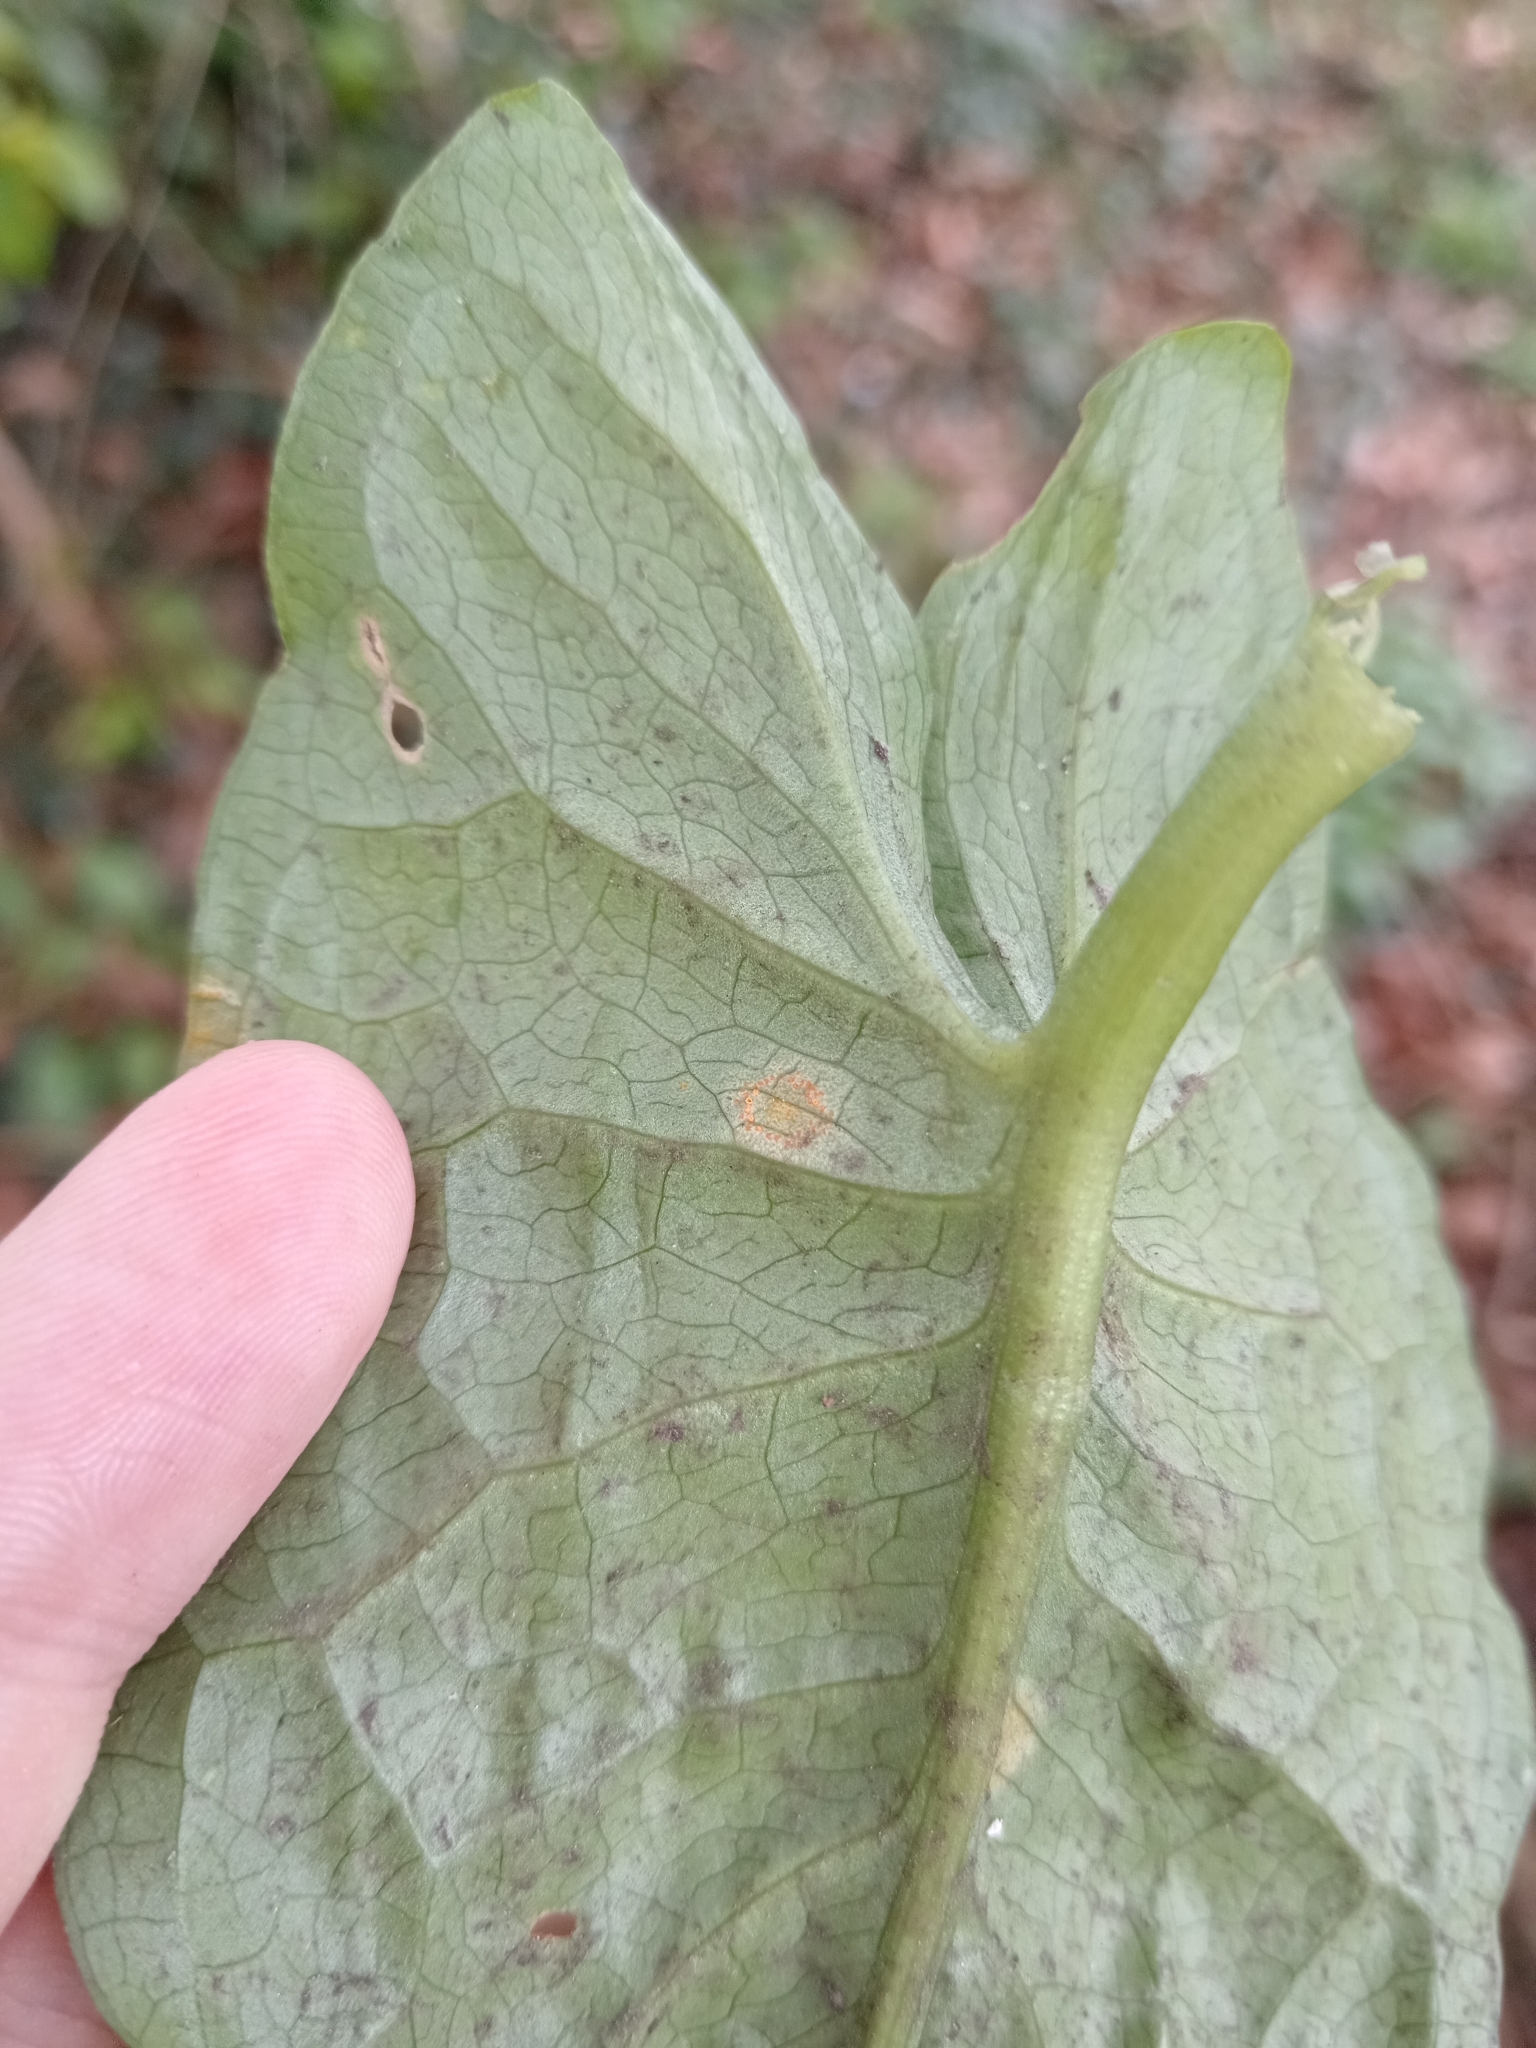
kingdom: Fungi
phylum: Basidiomycota
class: Pucciniomycetes
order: Pucciniales
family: Pucciniaceae
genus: Puccinia
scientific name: Puccinia sessilis
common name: Arum rust
